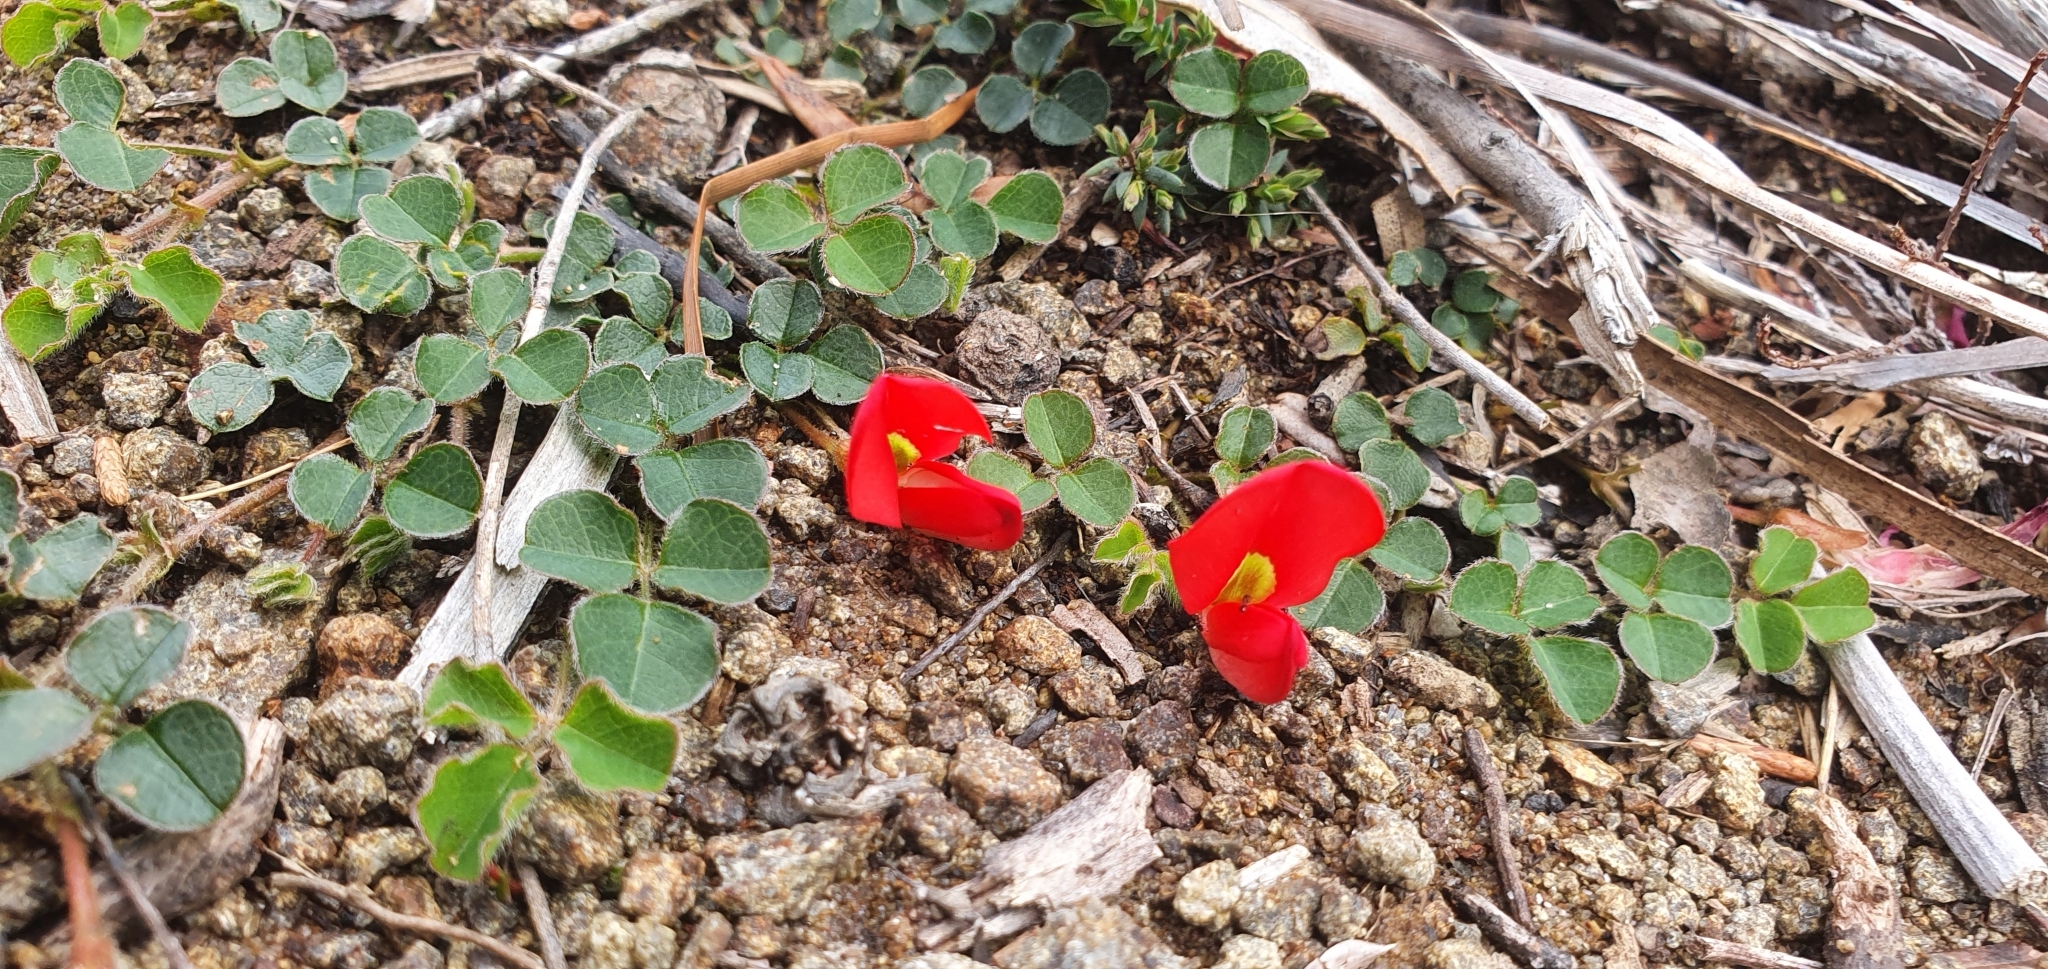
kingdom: Plantae
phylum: Tracheophyta
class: Magnoliopsida
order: Fabales
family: Fabaceae
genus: Kennedia
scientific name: Kennedia prostrata
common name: Running-postman
